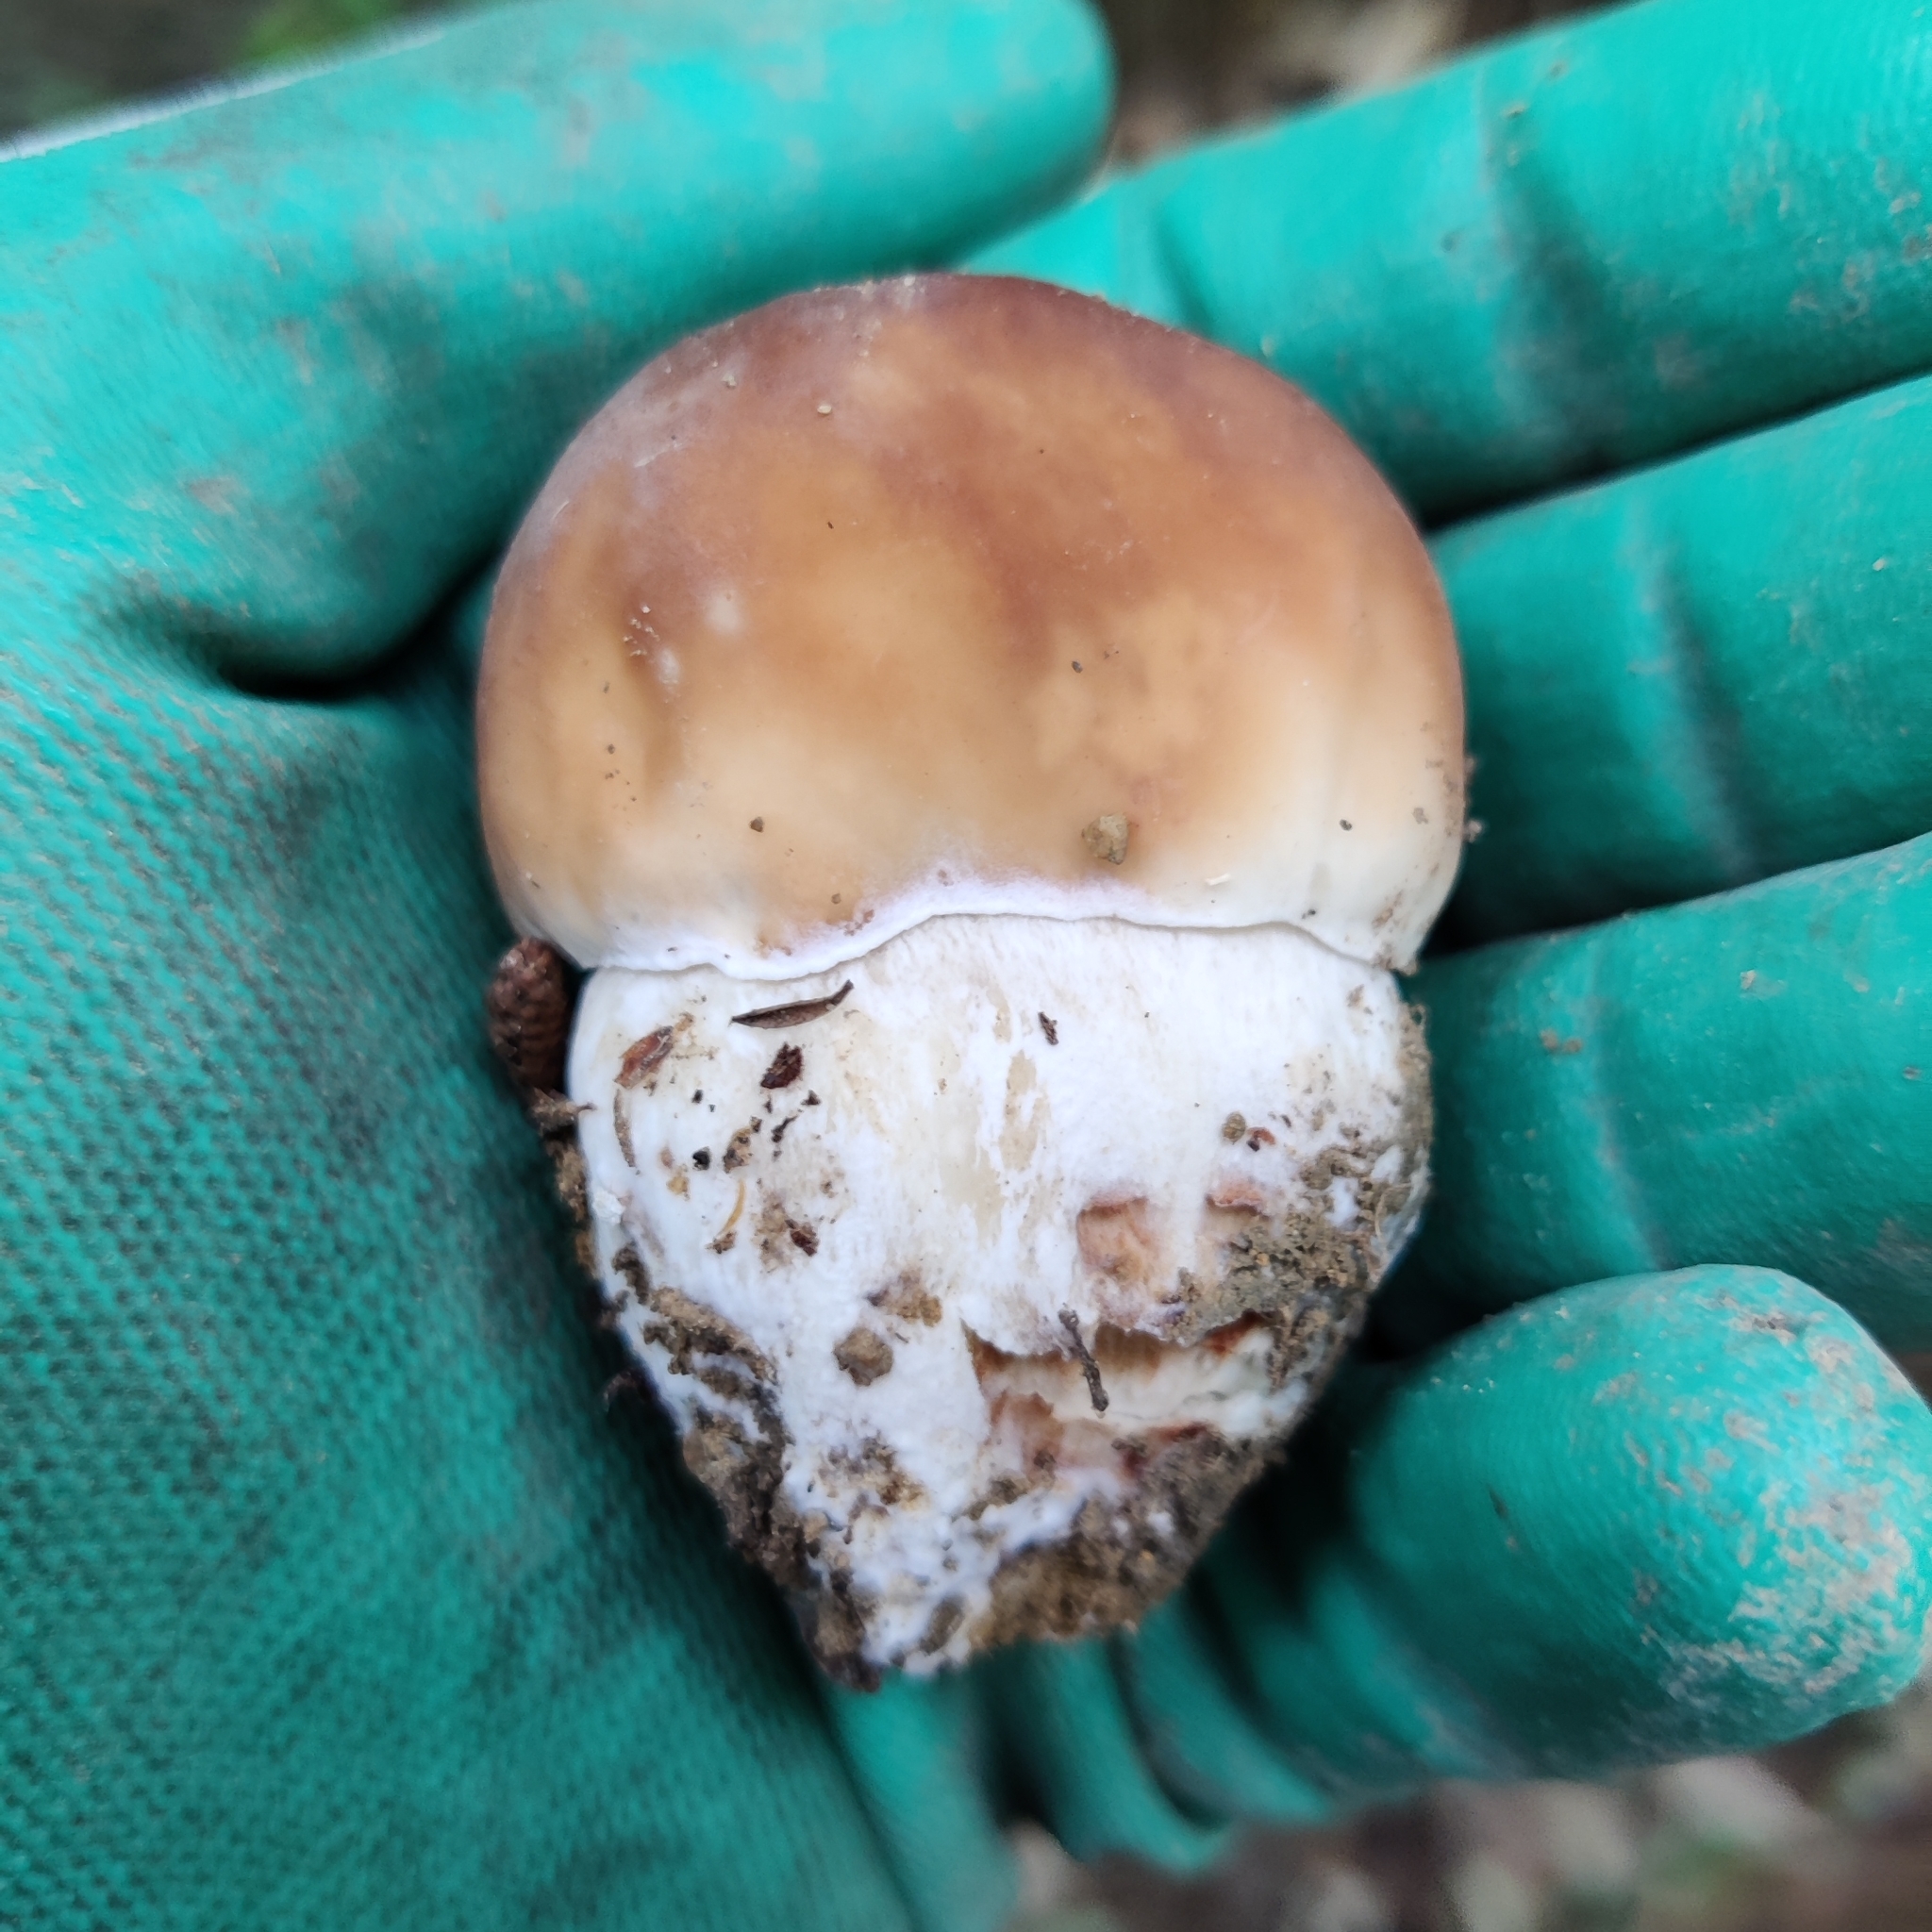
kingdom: Fungi
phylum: Basidiomycota
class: Agaricomycetes
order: Boletales
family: Boletaceae
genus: Boletus
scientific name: Boletus edulis
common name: Cep
